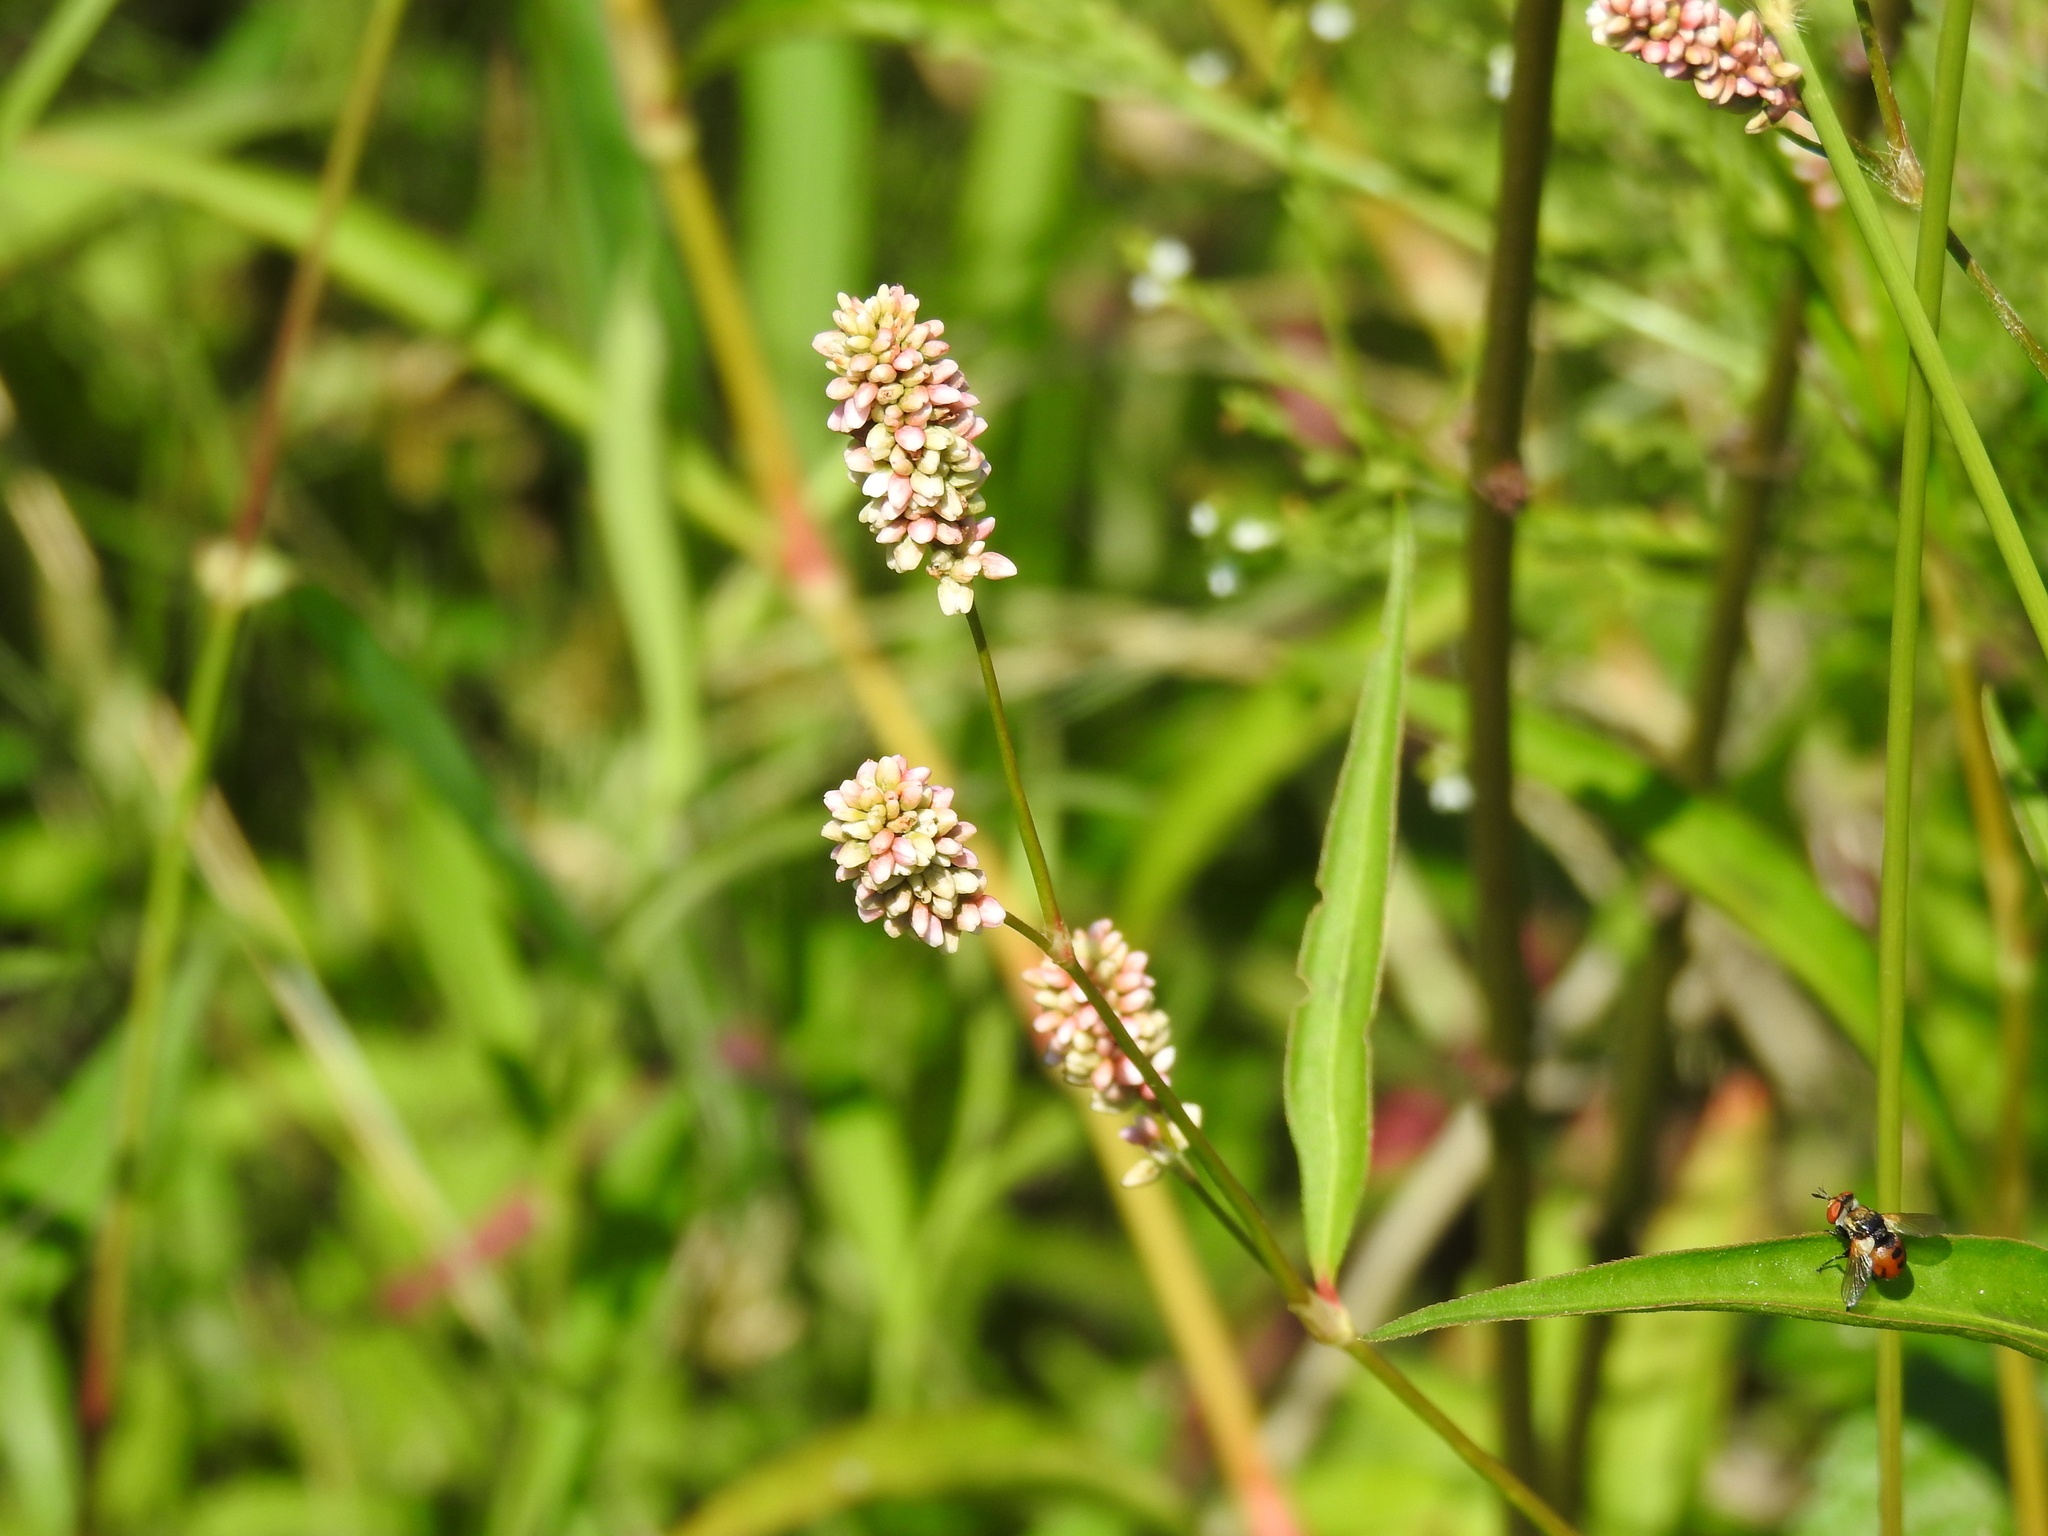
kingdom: Plantae
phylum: Tracheophyta
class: Magnoliopsida
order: Caryophyllales
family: Polygonaceae
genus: Persicaria
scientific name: Persicaria maculosa
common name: Redshank
